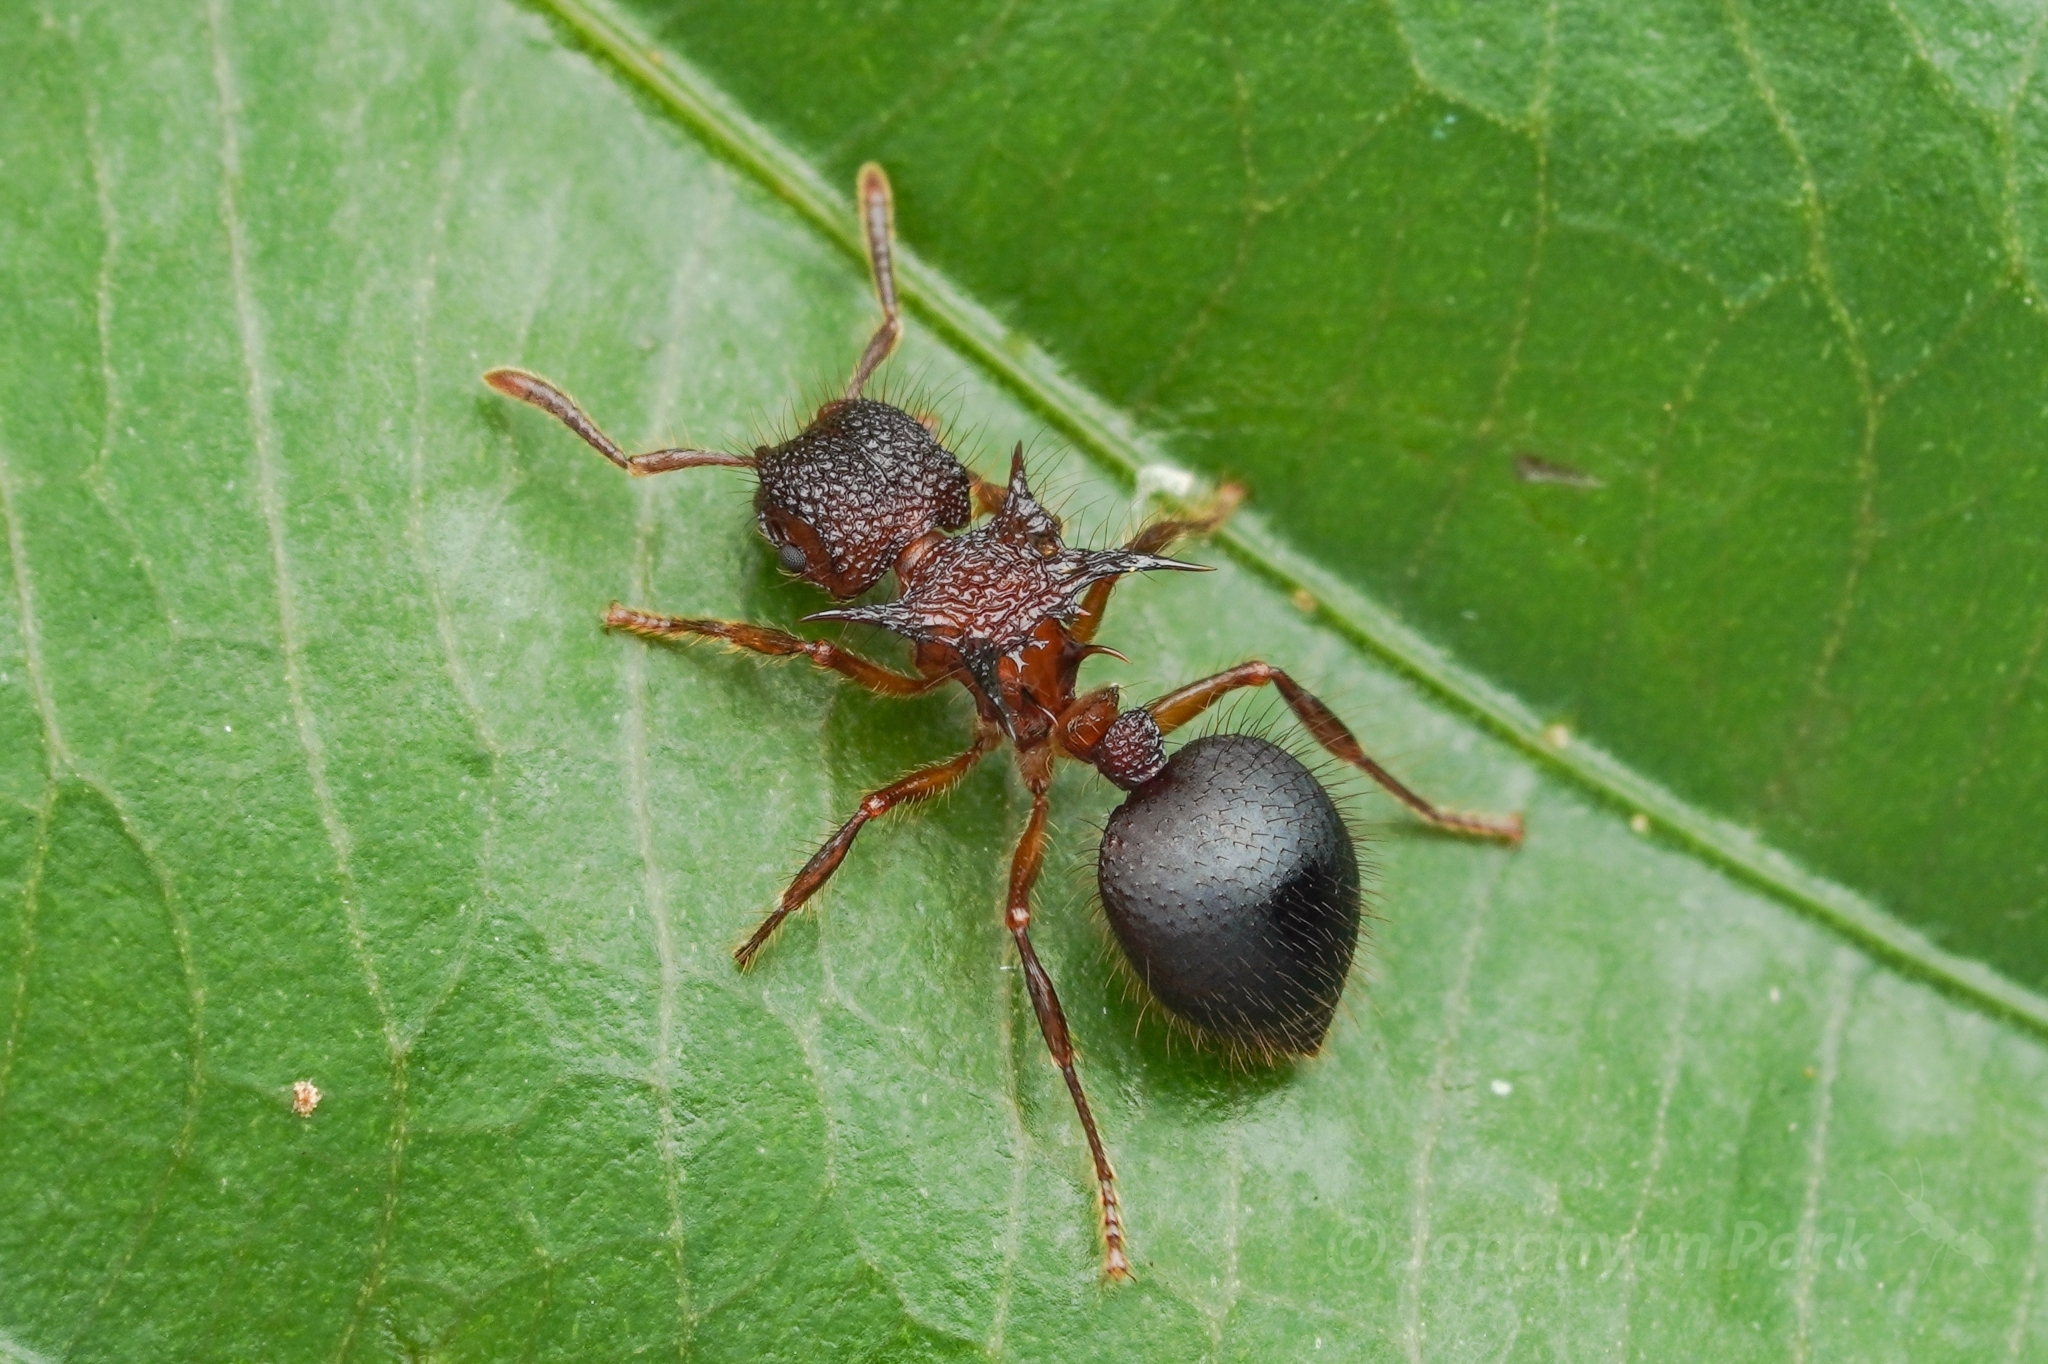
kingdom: Animalia
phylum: Arthropoda
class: Insecta
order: Hymenoptera
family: Formicidae
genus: Meranoplus
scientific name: Meranoplus mucronatus
